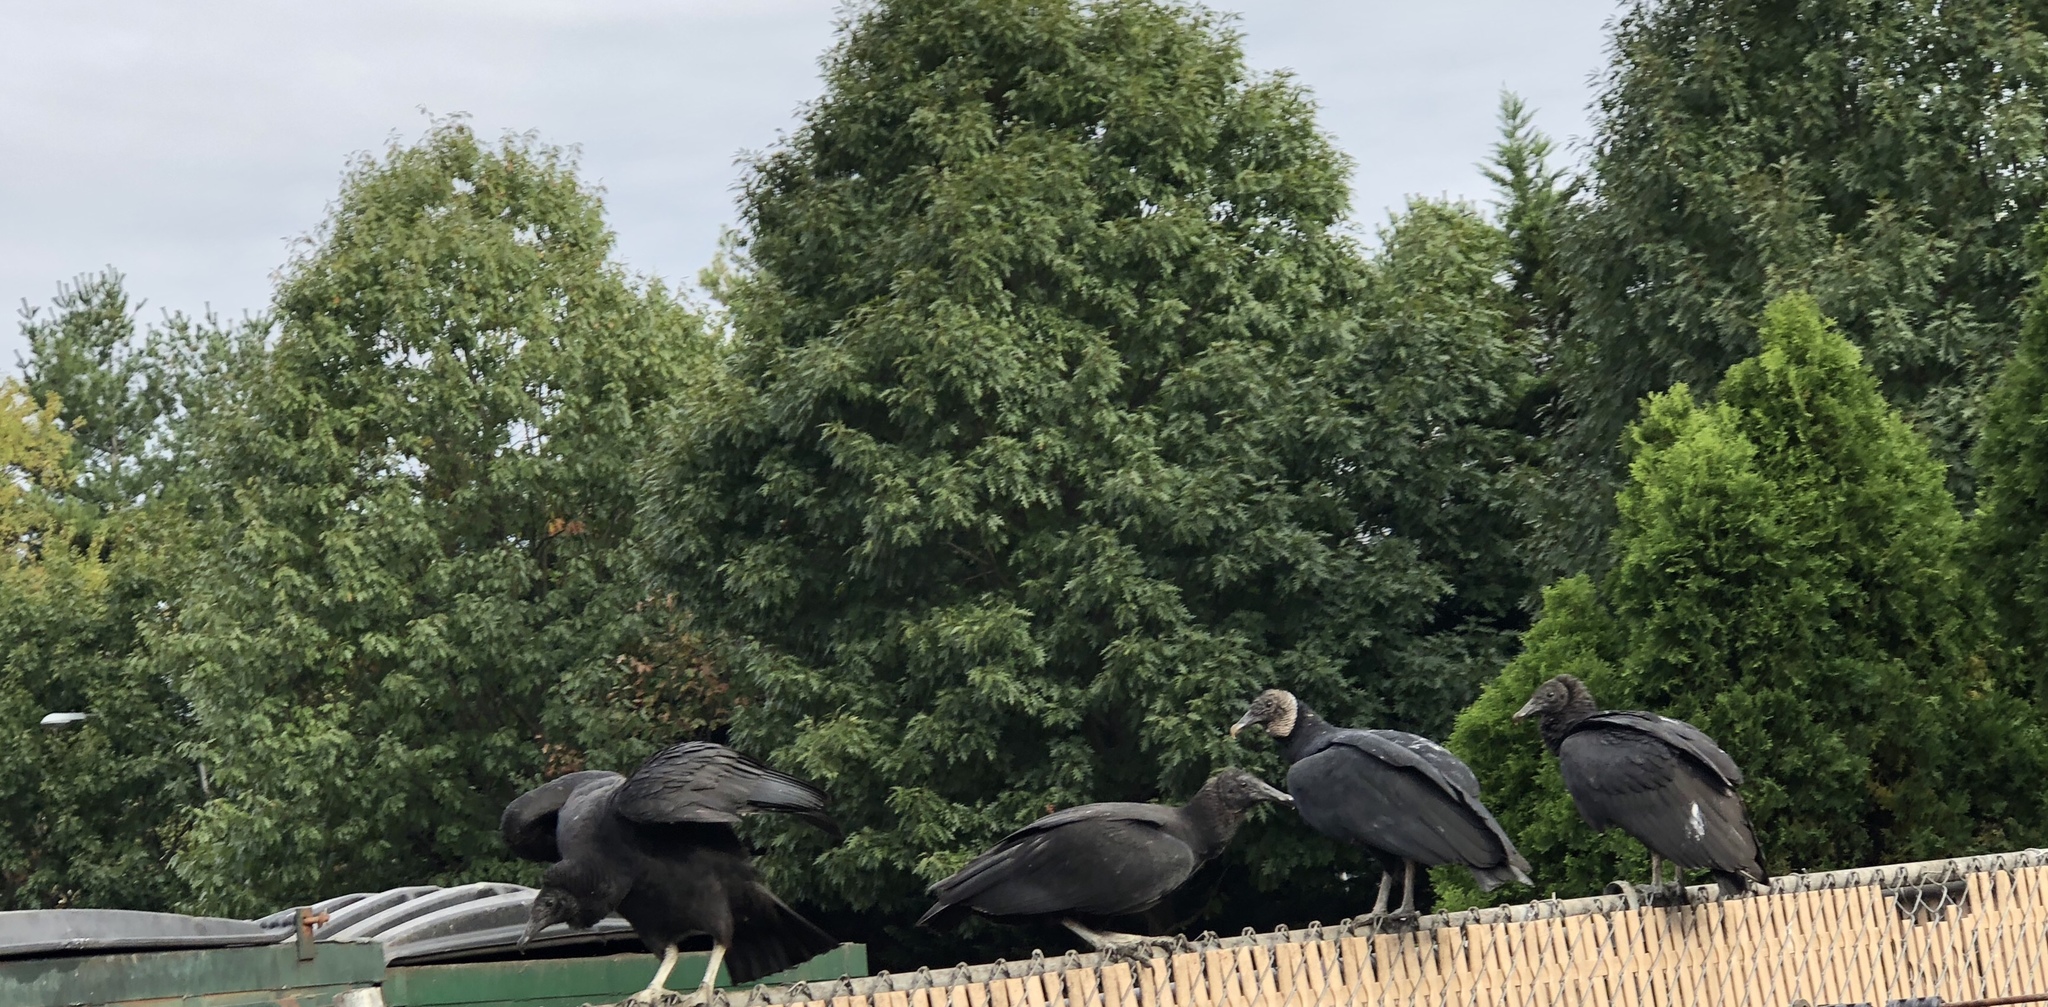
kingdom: Animalia
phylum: Chordata
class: Aves
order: Accipitriformes
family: Cathartidae
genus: Coragyps
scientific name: Coragyps atratus
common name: Black vulture
